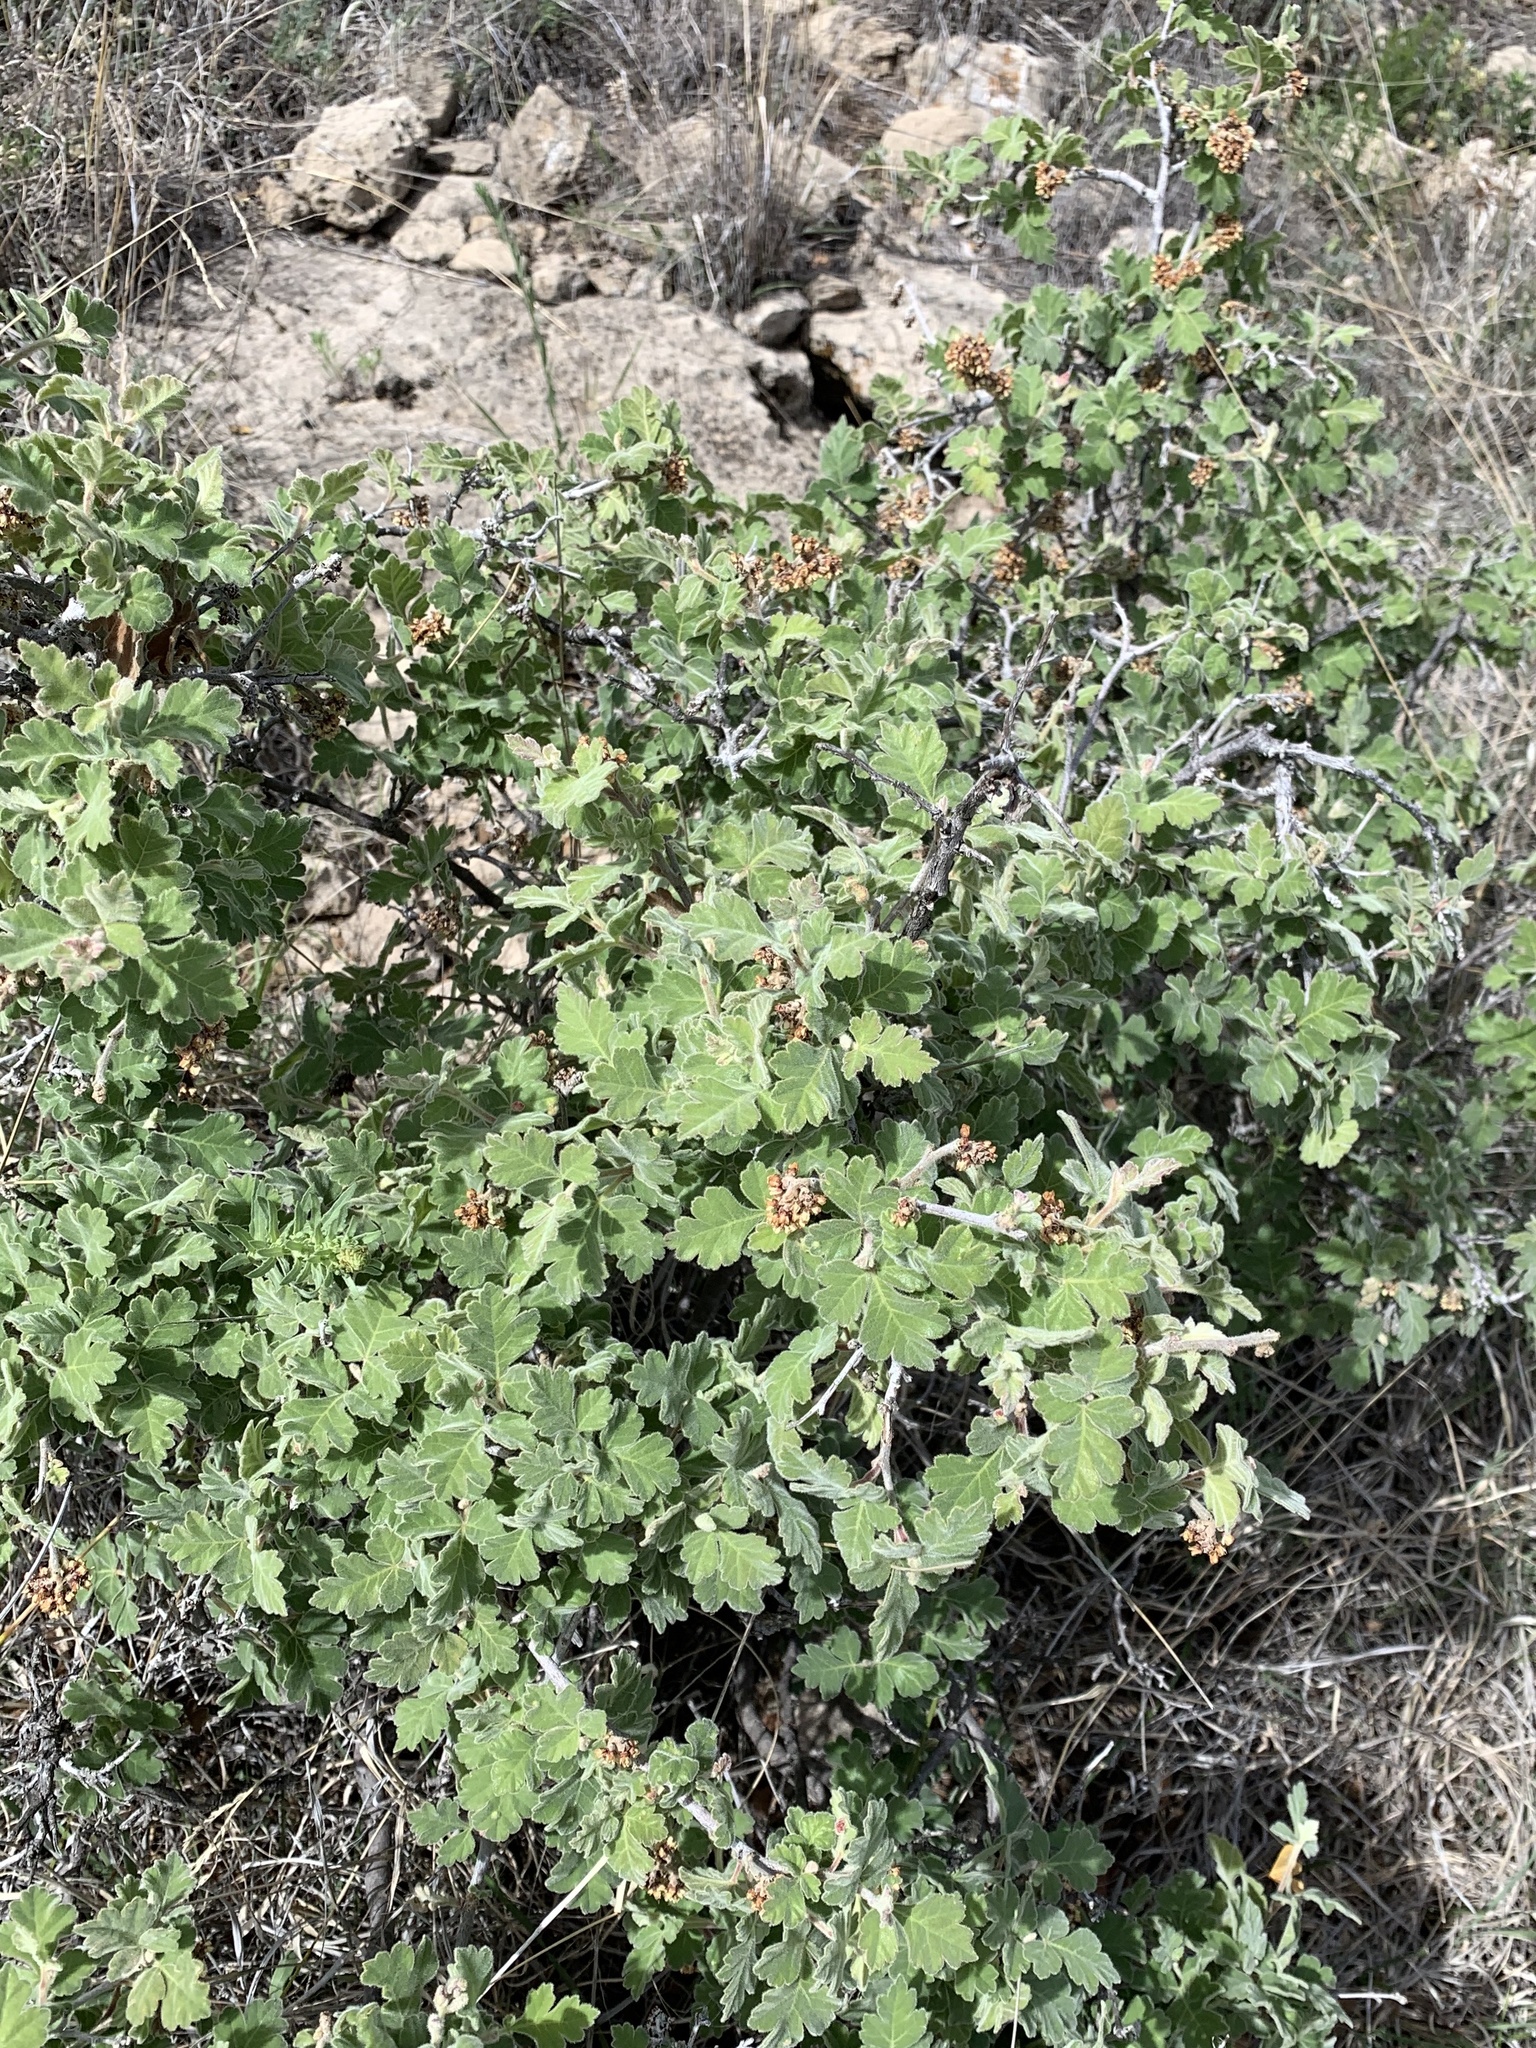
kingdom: Plantae
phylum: Tracheophyta
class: Magnoliopsida
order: Sapindales
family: Anacardiaceae
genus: Rhus
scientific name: Rhus aromatica
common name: Aromatic sumac
